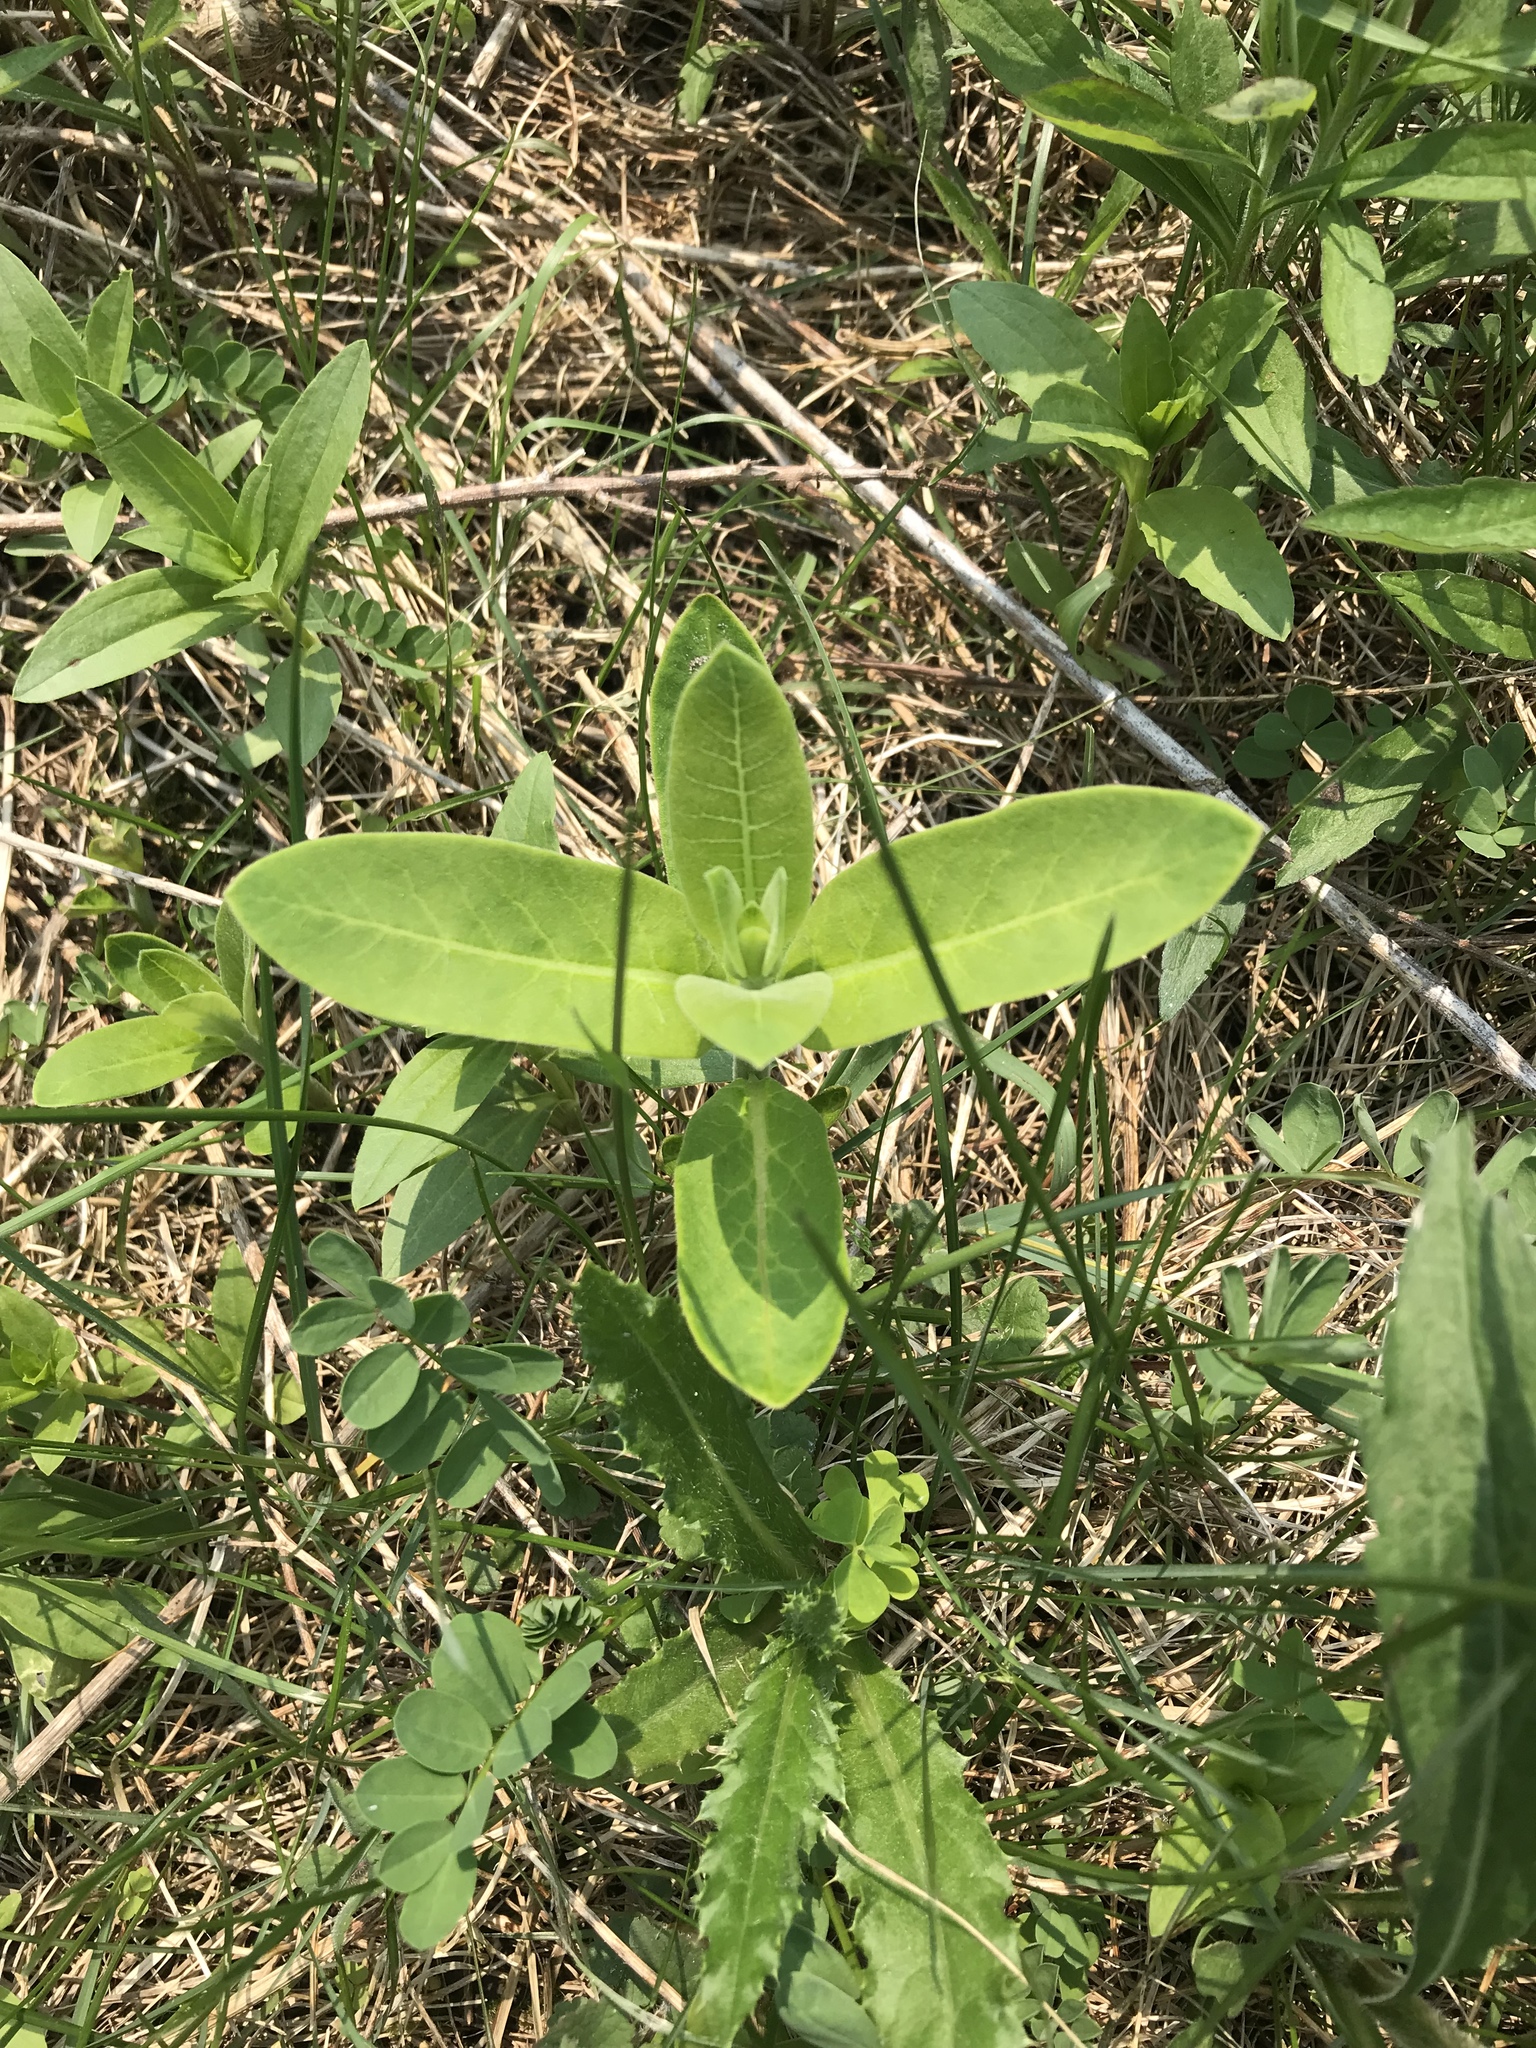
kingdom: Plantae
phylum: Tracheophyta
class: Magnoliopsida
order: Gentianales
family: Apocynaceae
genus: Asclepias
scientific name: Asclepias syriaca
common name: Common milkweed
